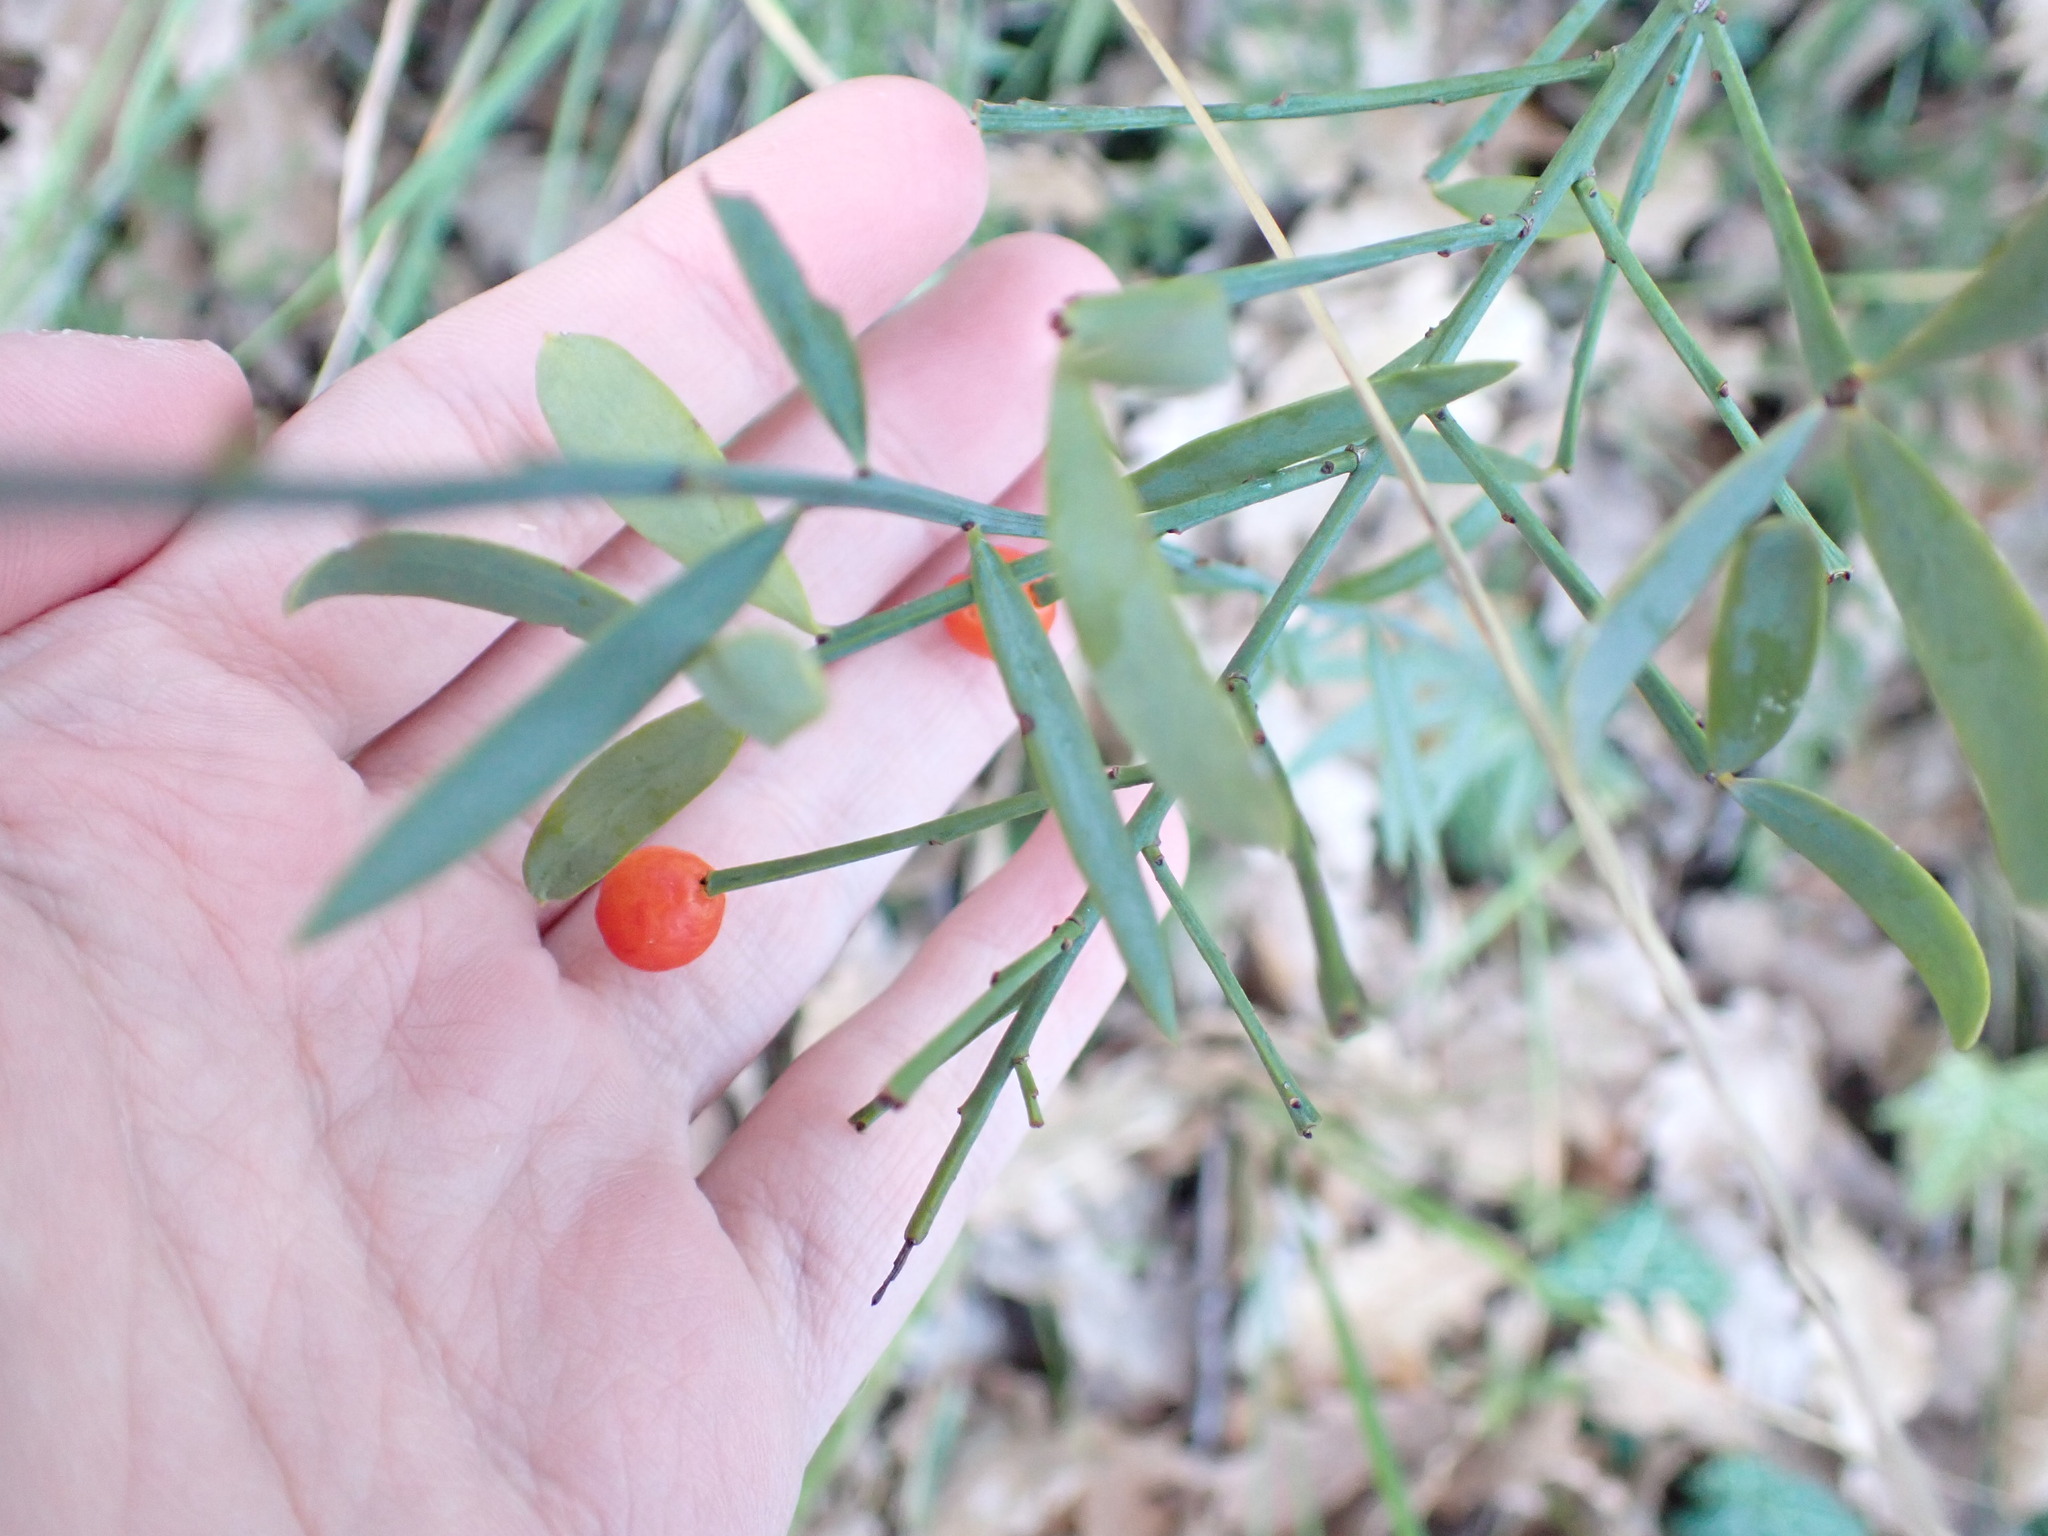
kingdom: Plantae
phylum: Tracheophyta
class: Magnoliopsida
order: Santalales
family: Santalaceae
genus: Osyris
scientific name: Osyris alba
